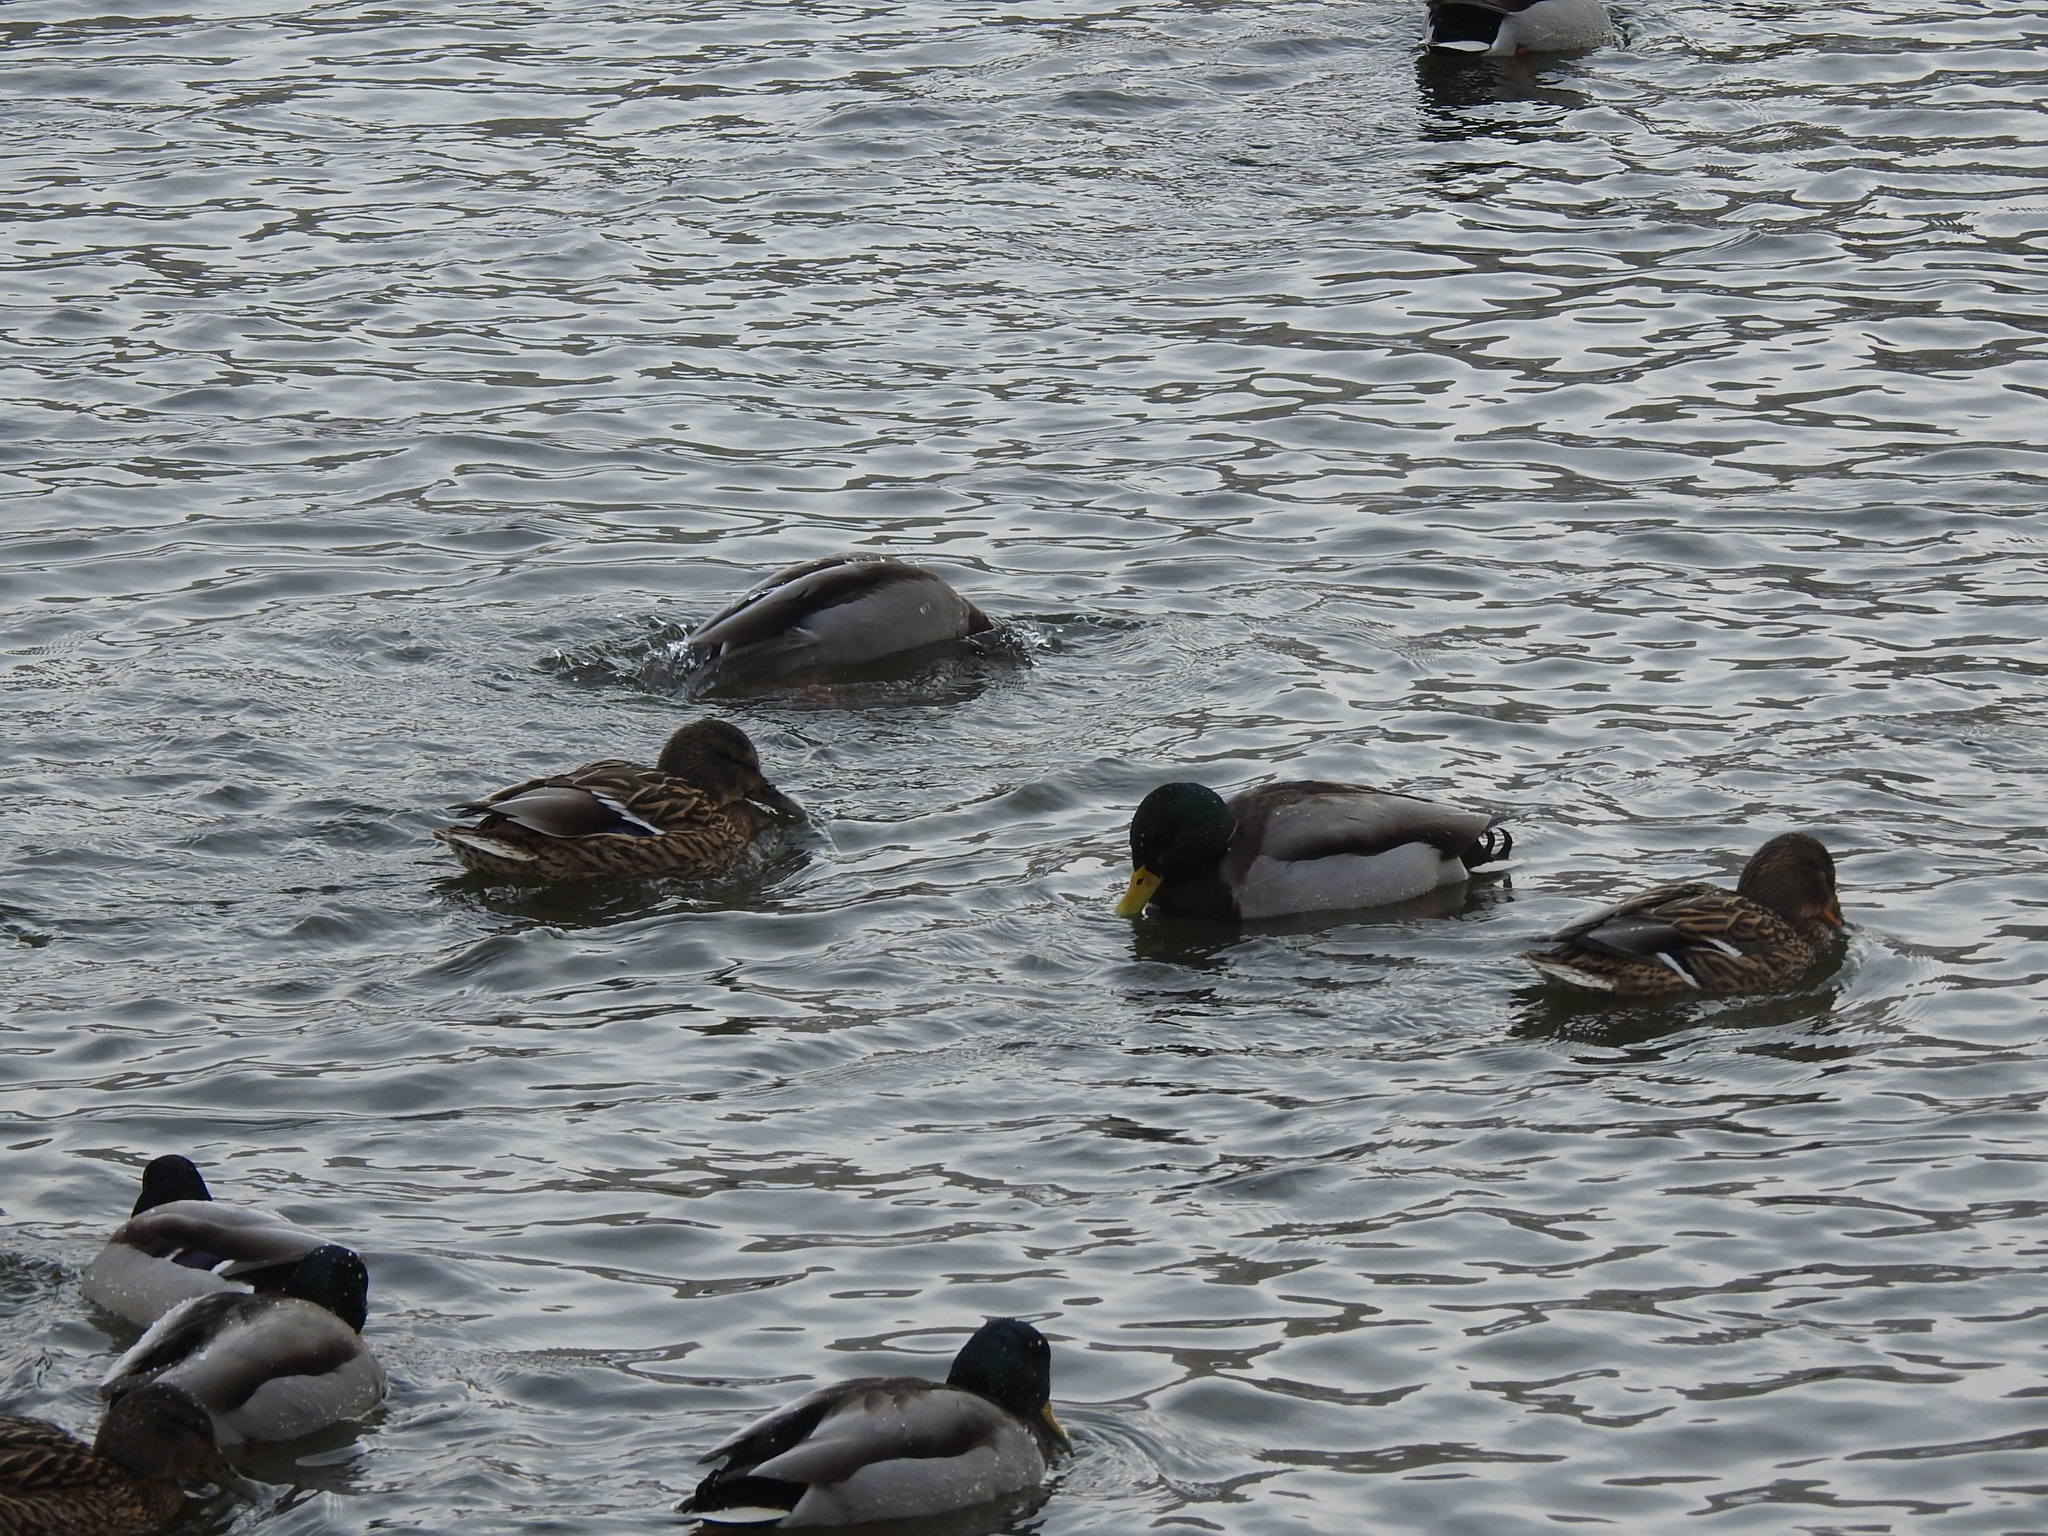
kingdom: Animalia
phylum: Chordata
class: Aves
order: Anseriformes
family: Anatidae
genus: Anas
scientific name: Anas platyrhynchos
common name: Mallard
